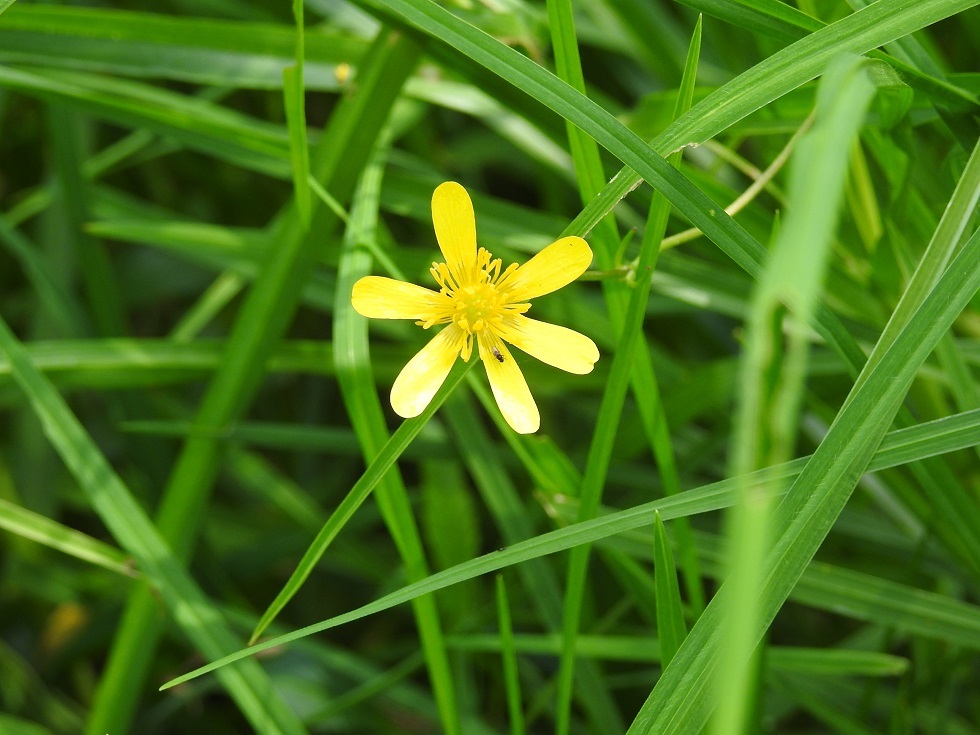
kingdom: Plantae
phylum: Tracheophyta
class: Magnoliopsida
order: Ranunculales
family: Ranunculaceae
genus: Ranunculus
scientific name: Ranunculus petiolaris
